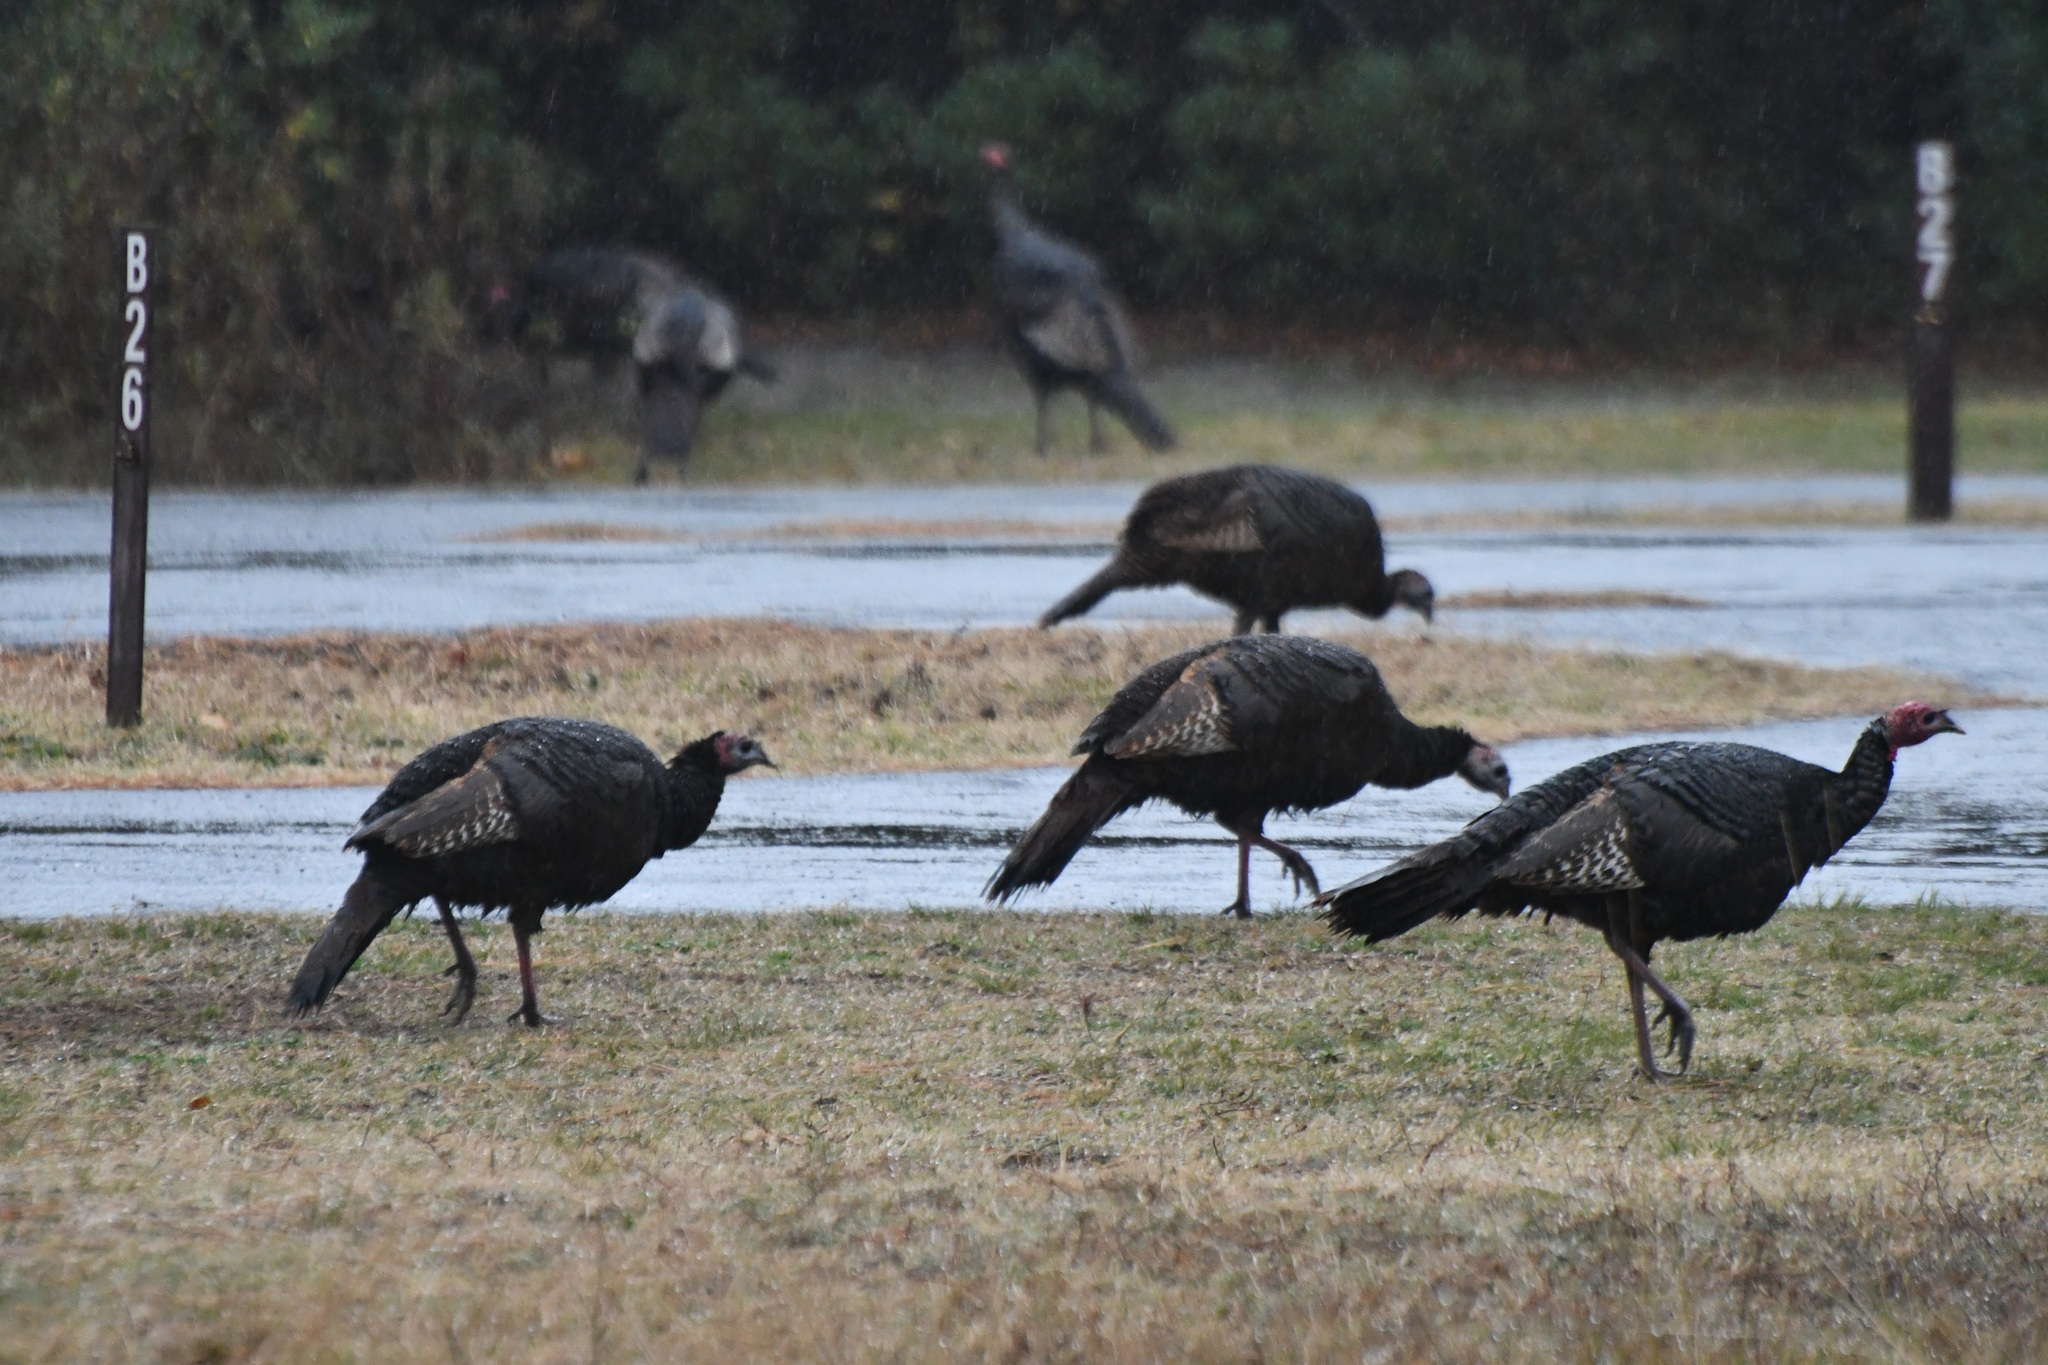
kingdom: Animalia
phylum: Chordata
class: Aves
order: Galliformes
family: Phasianidae
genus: Meleagris
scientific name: Meleagris gallopavo
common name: Wild turkey
